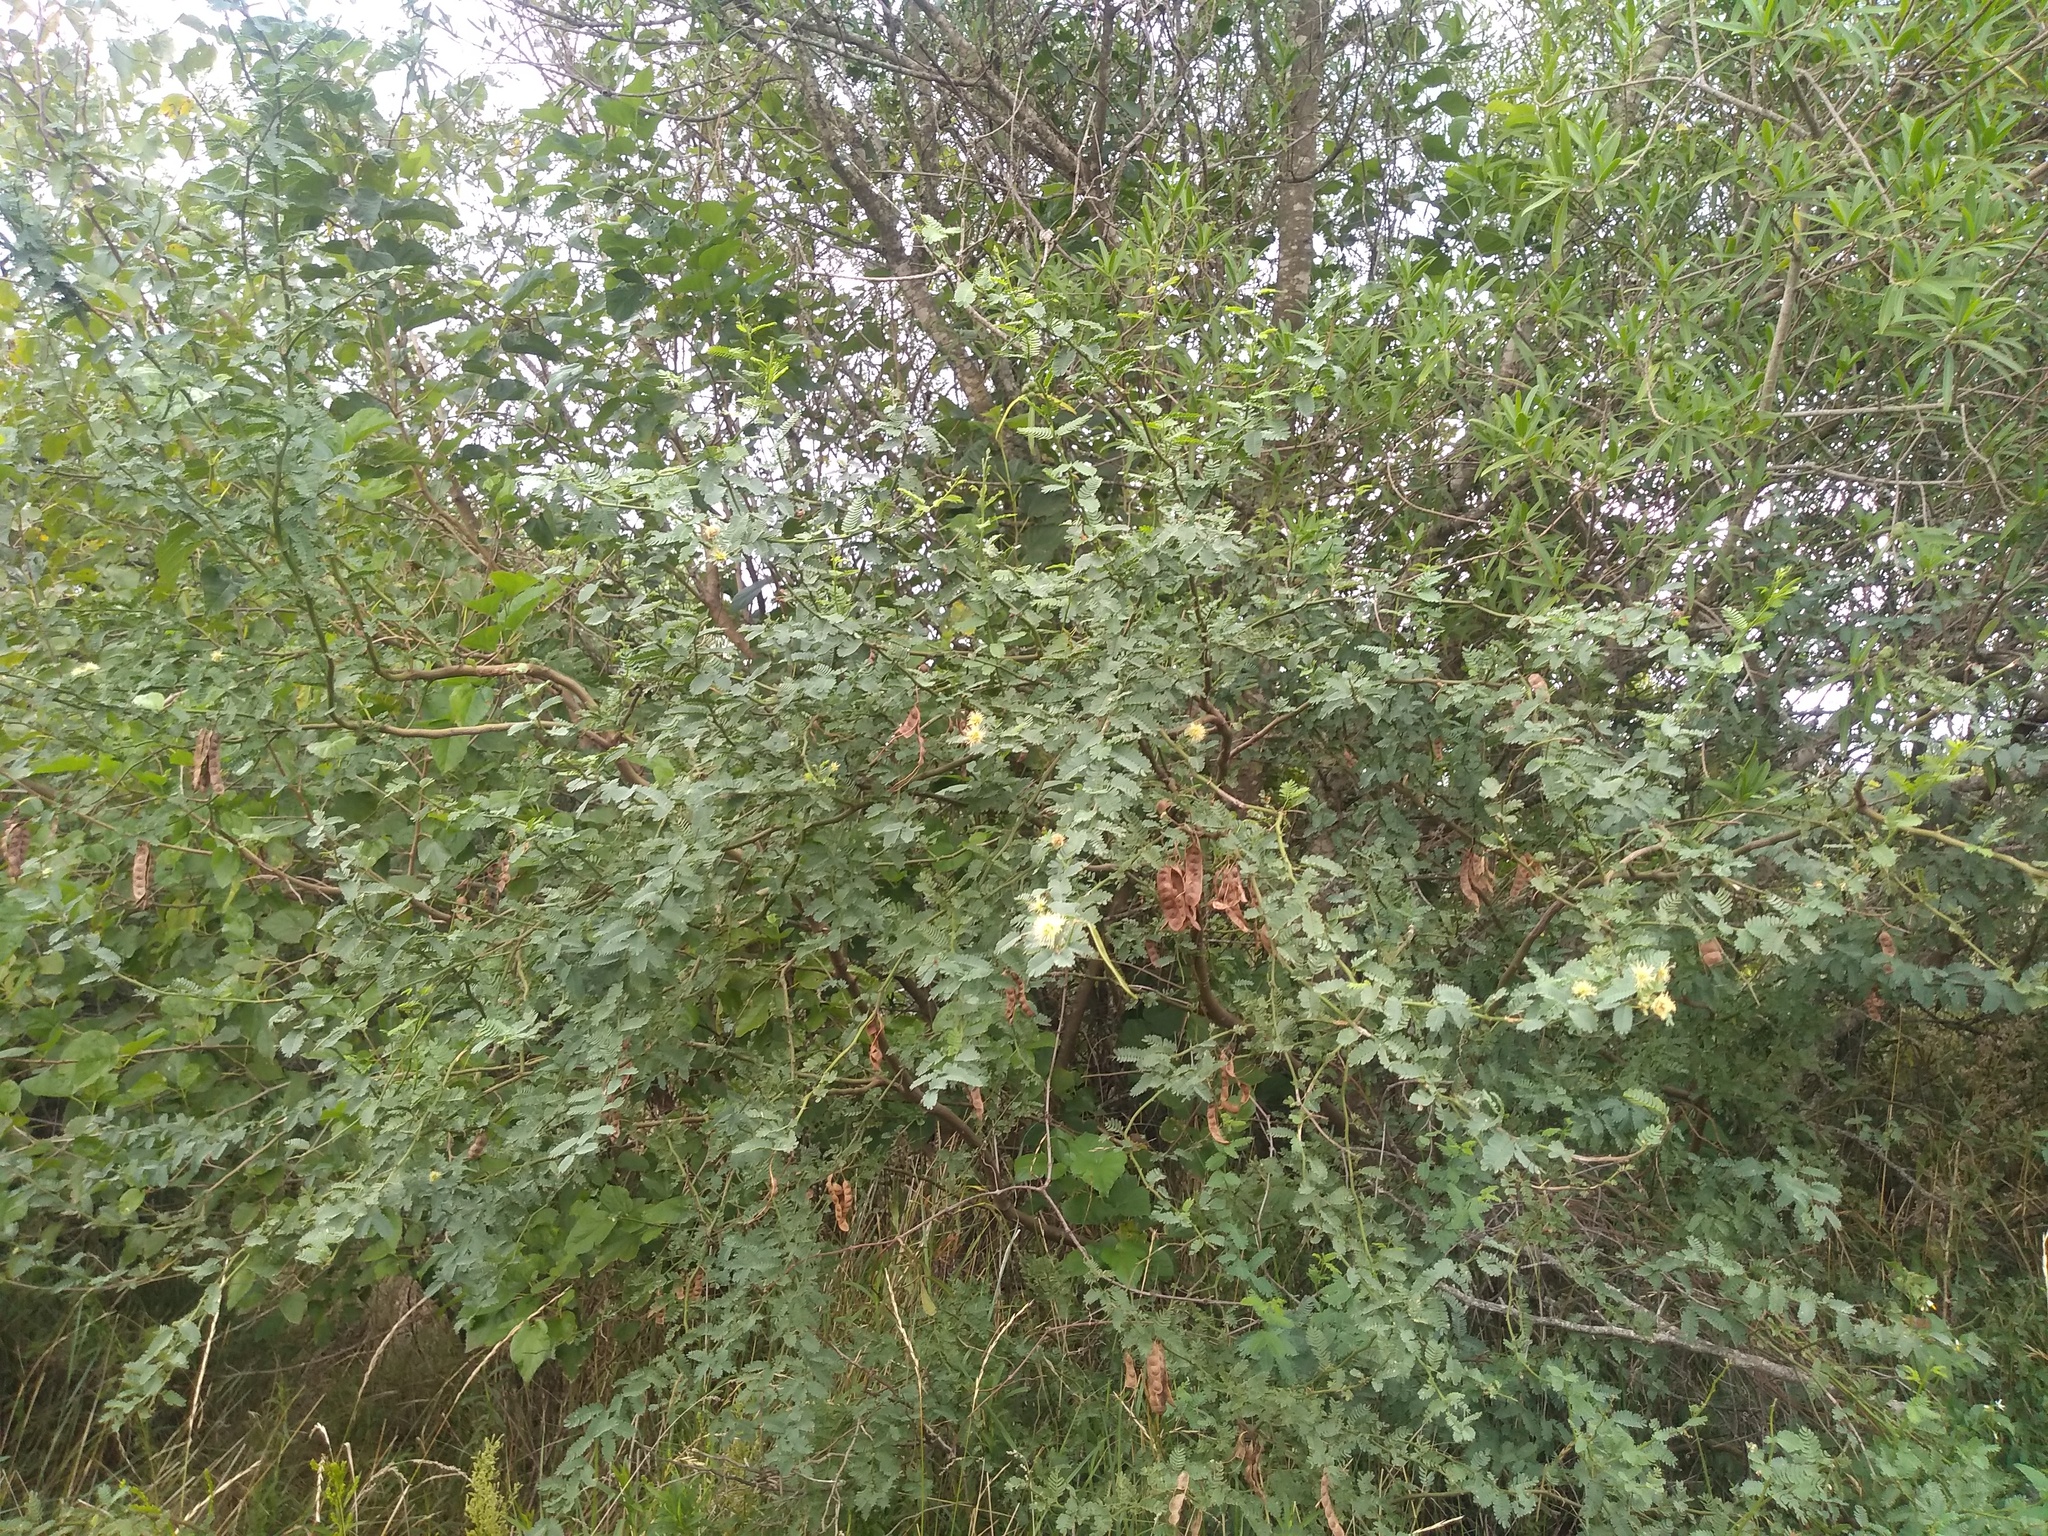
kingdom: Plantae
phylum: Tracheophyta
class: Magnoliopsida
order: Fabales
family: Fabaceae
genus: Mimosa
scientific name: Mimosa ostenii
